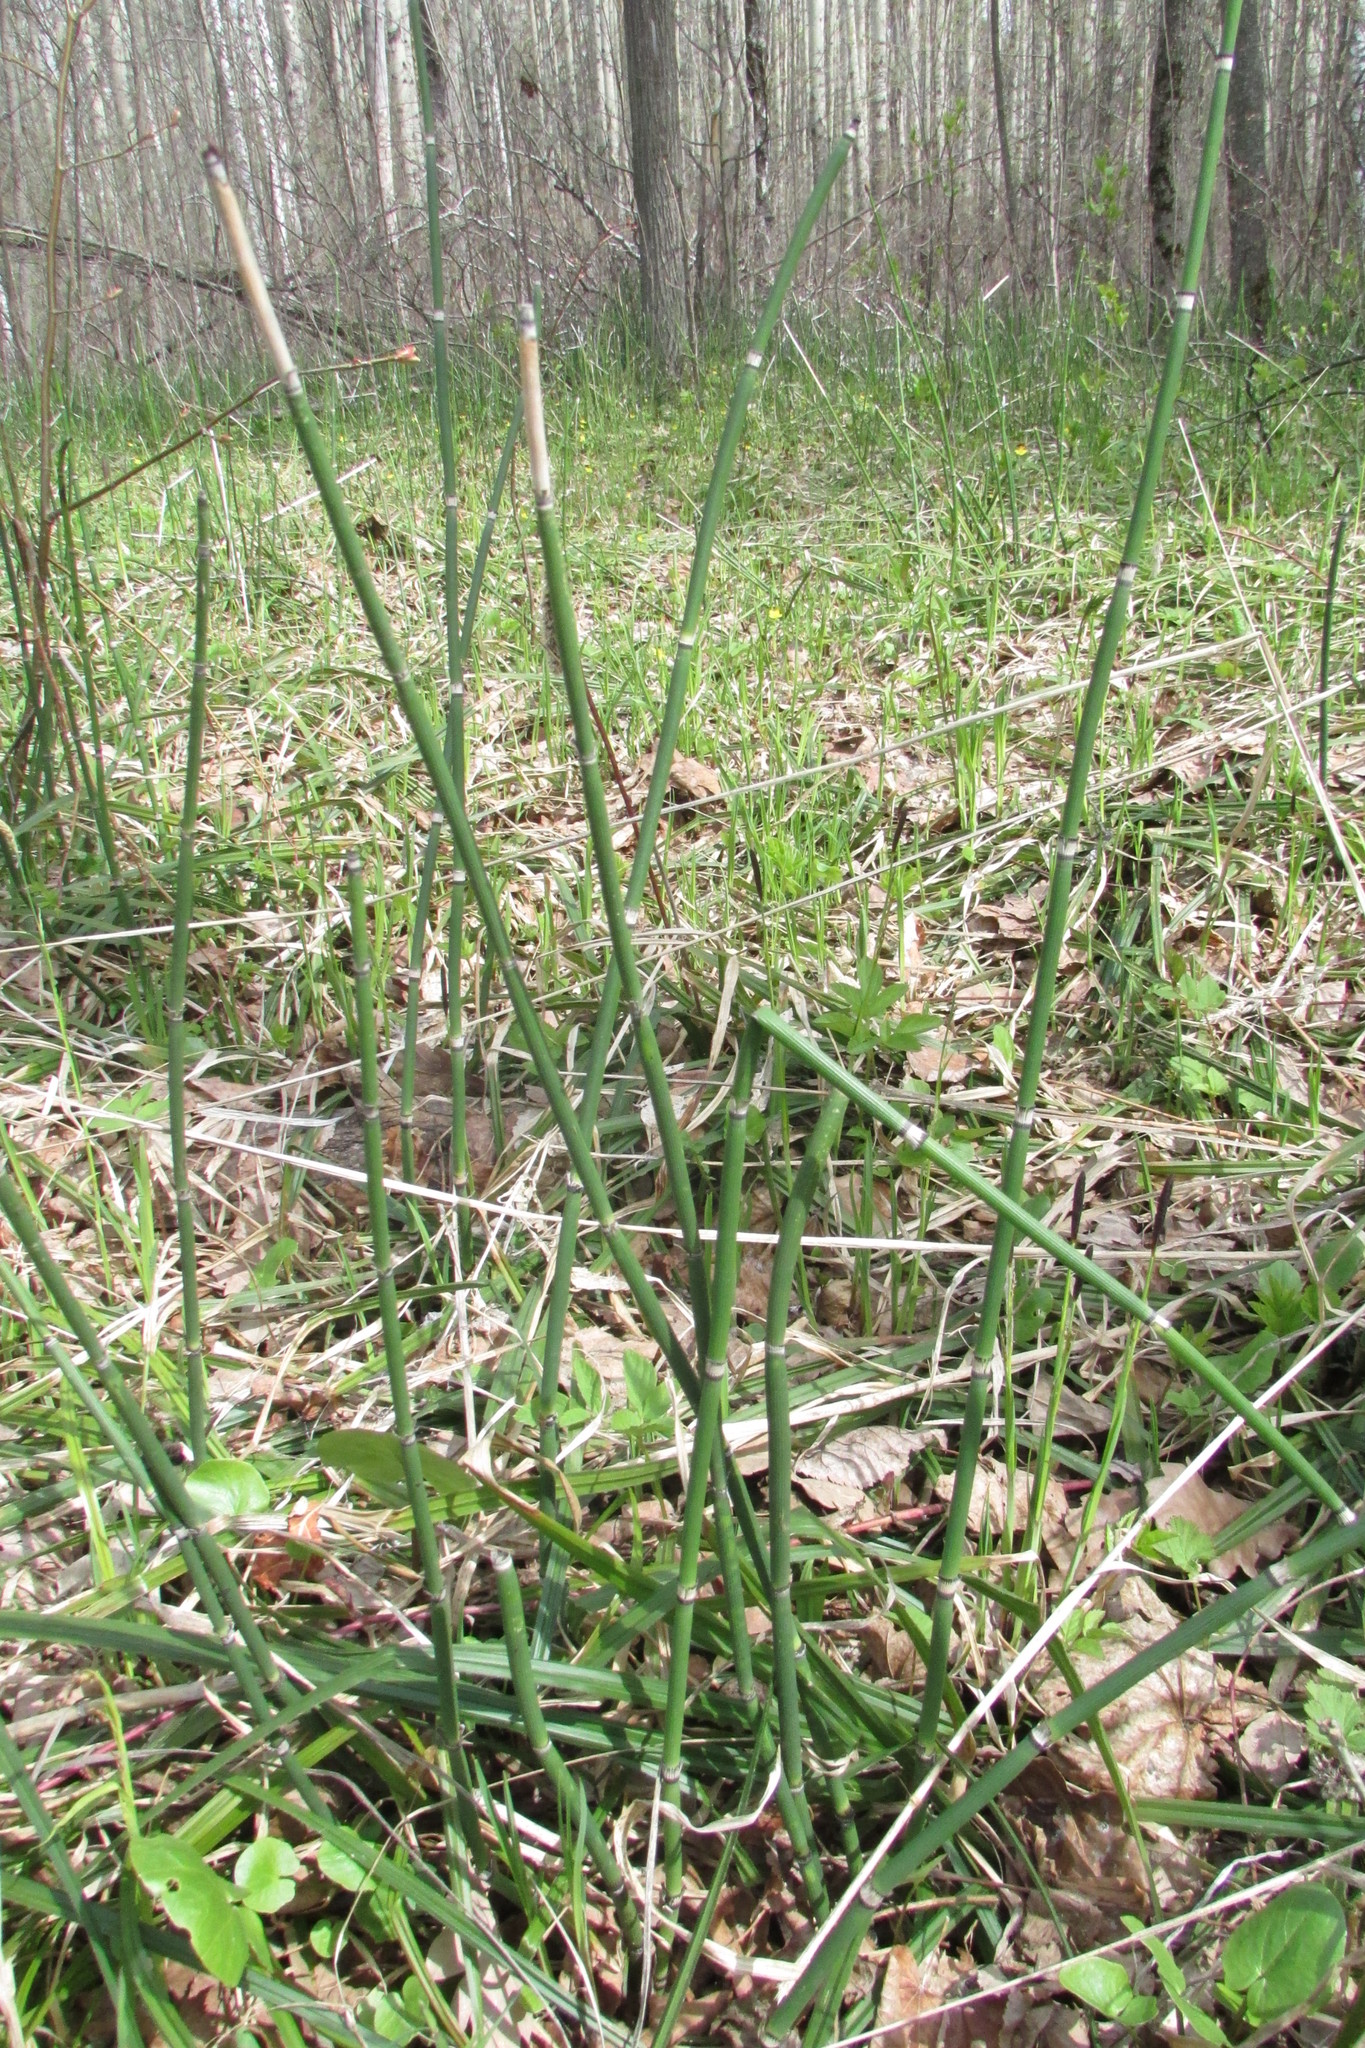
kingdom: Plantae
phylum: Tracheophyta
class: Polypodiopsida
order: Equisetales
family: Equisetaceae
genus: Equisetum
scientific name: Equisetum hyemale
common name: Rough horsetail
